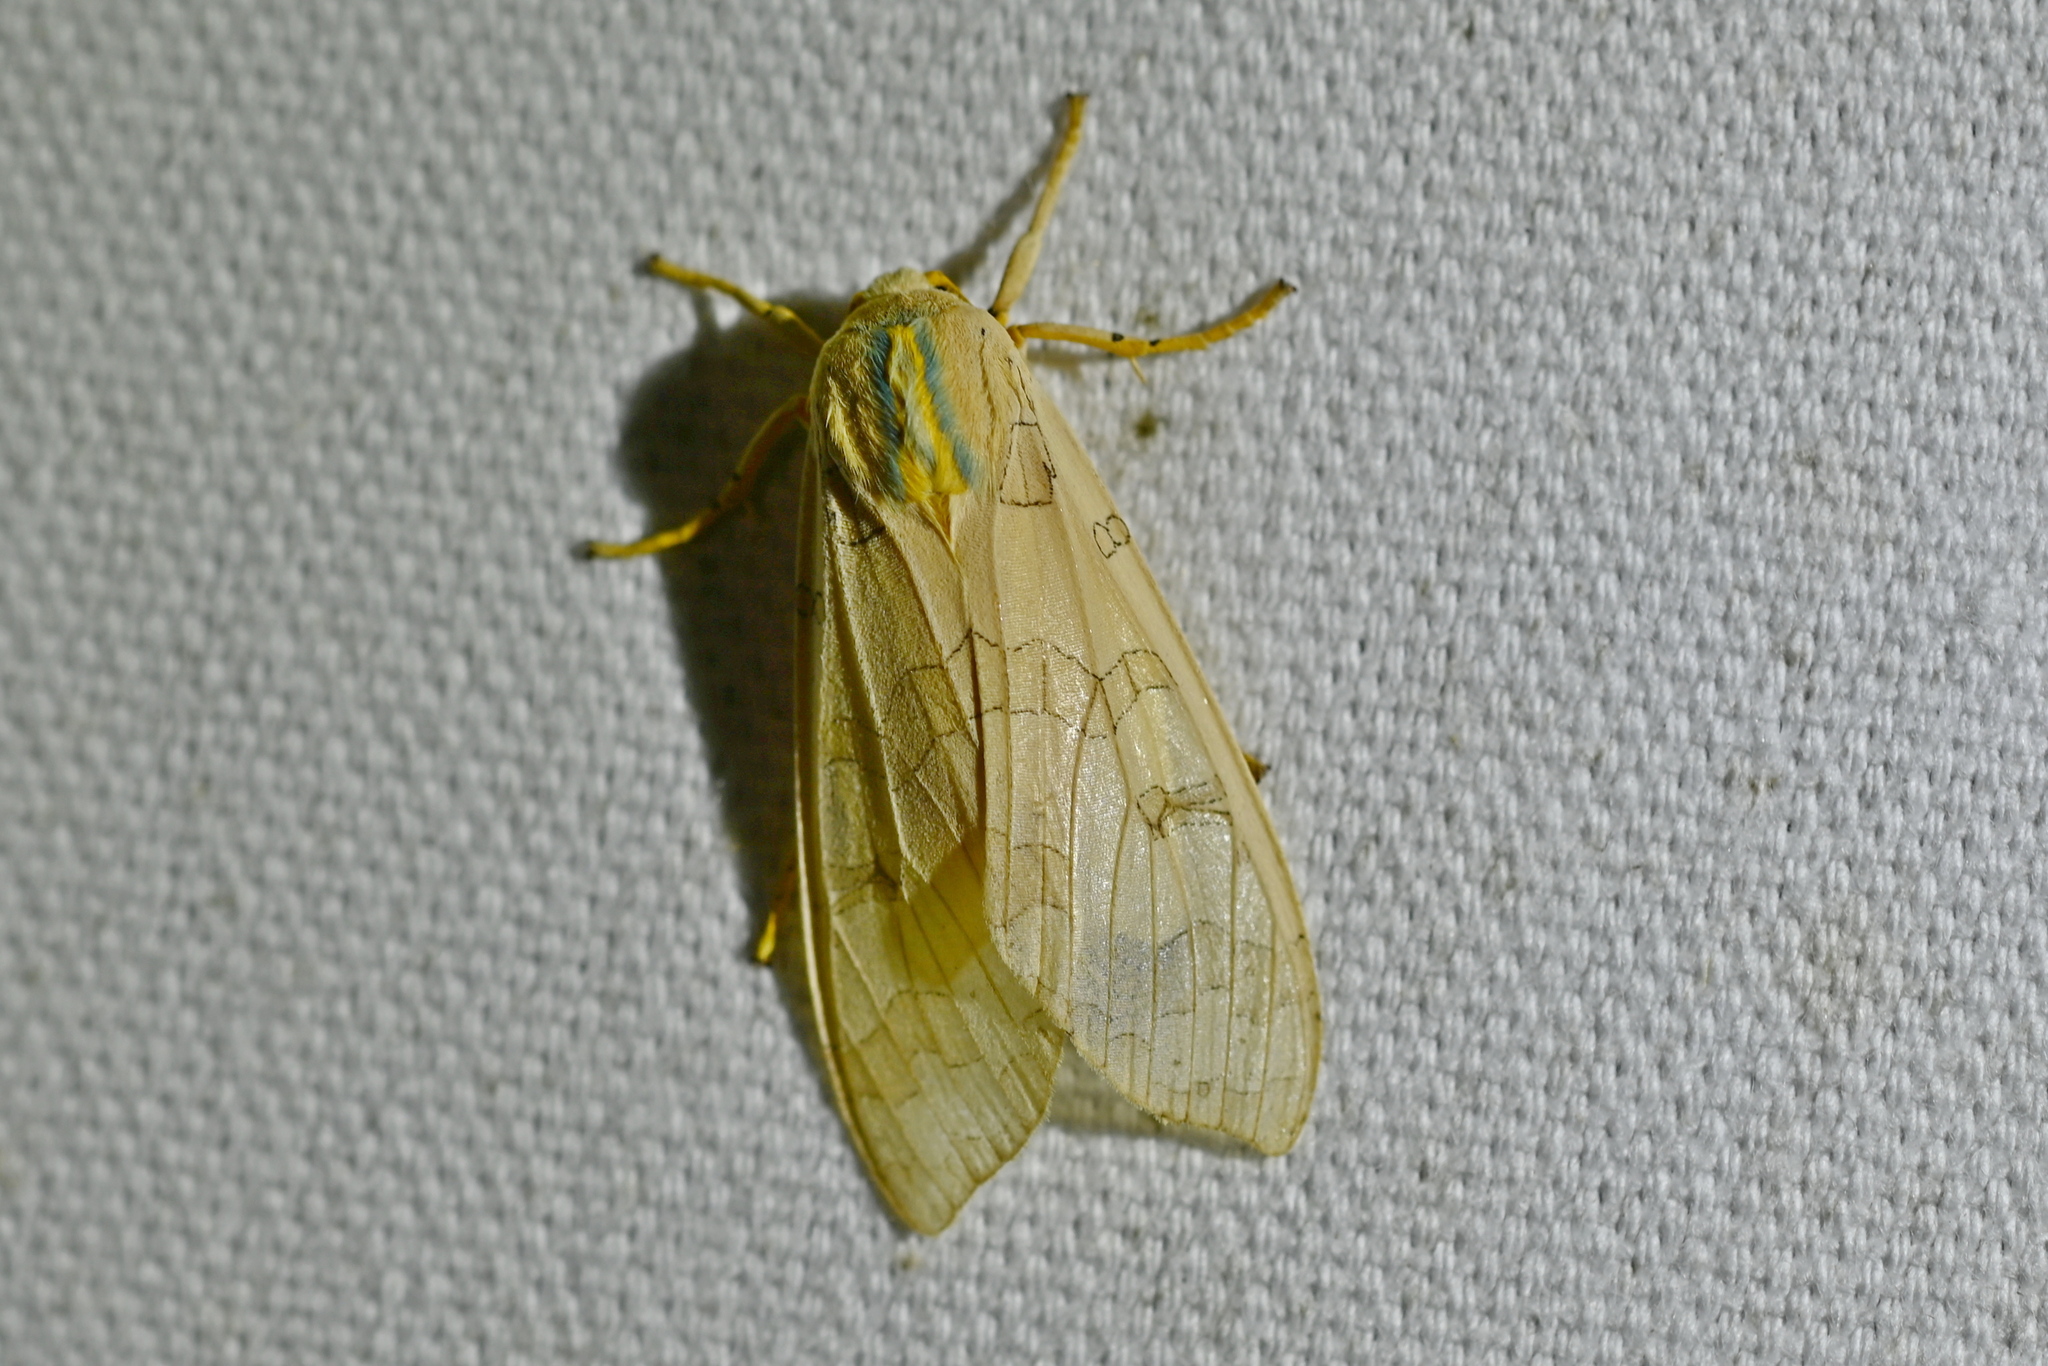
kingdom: Animalia
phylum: Arthropoda
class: Insecta
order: Lepidoptera
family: Erebidae
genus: Halysidota
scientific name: Halysidota
